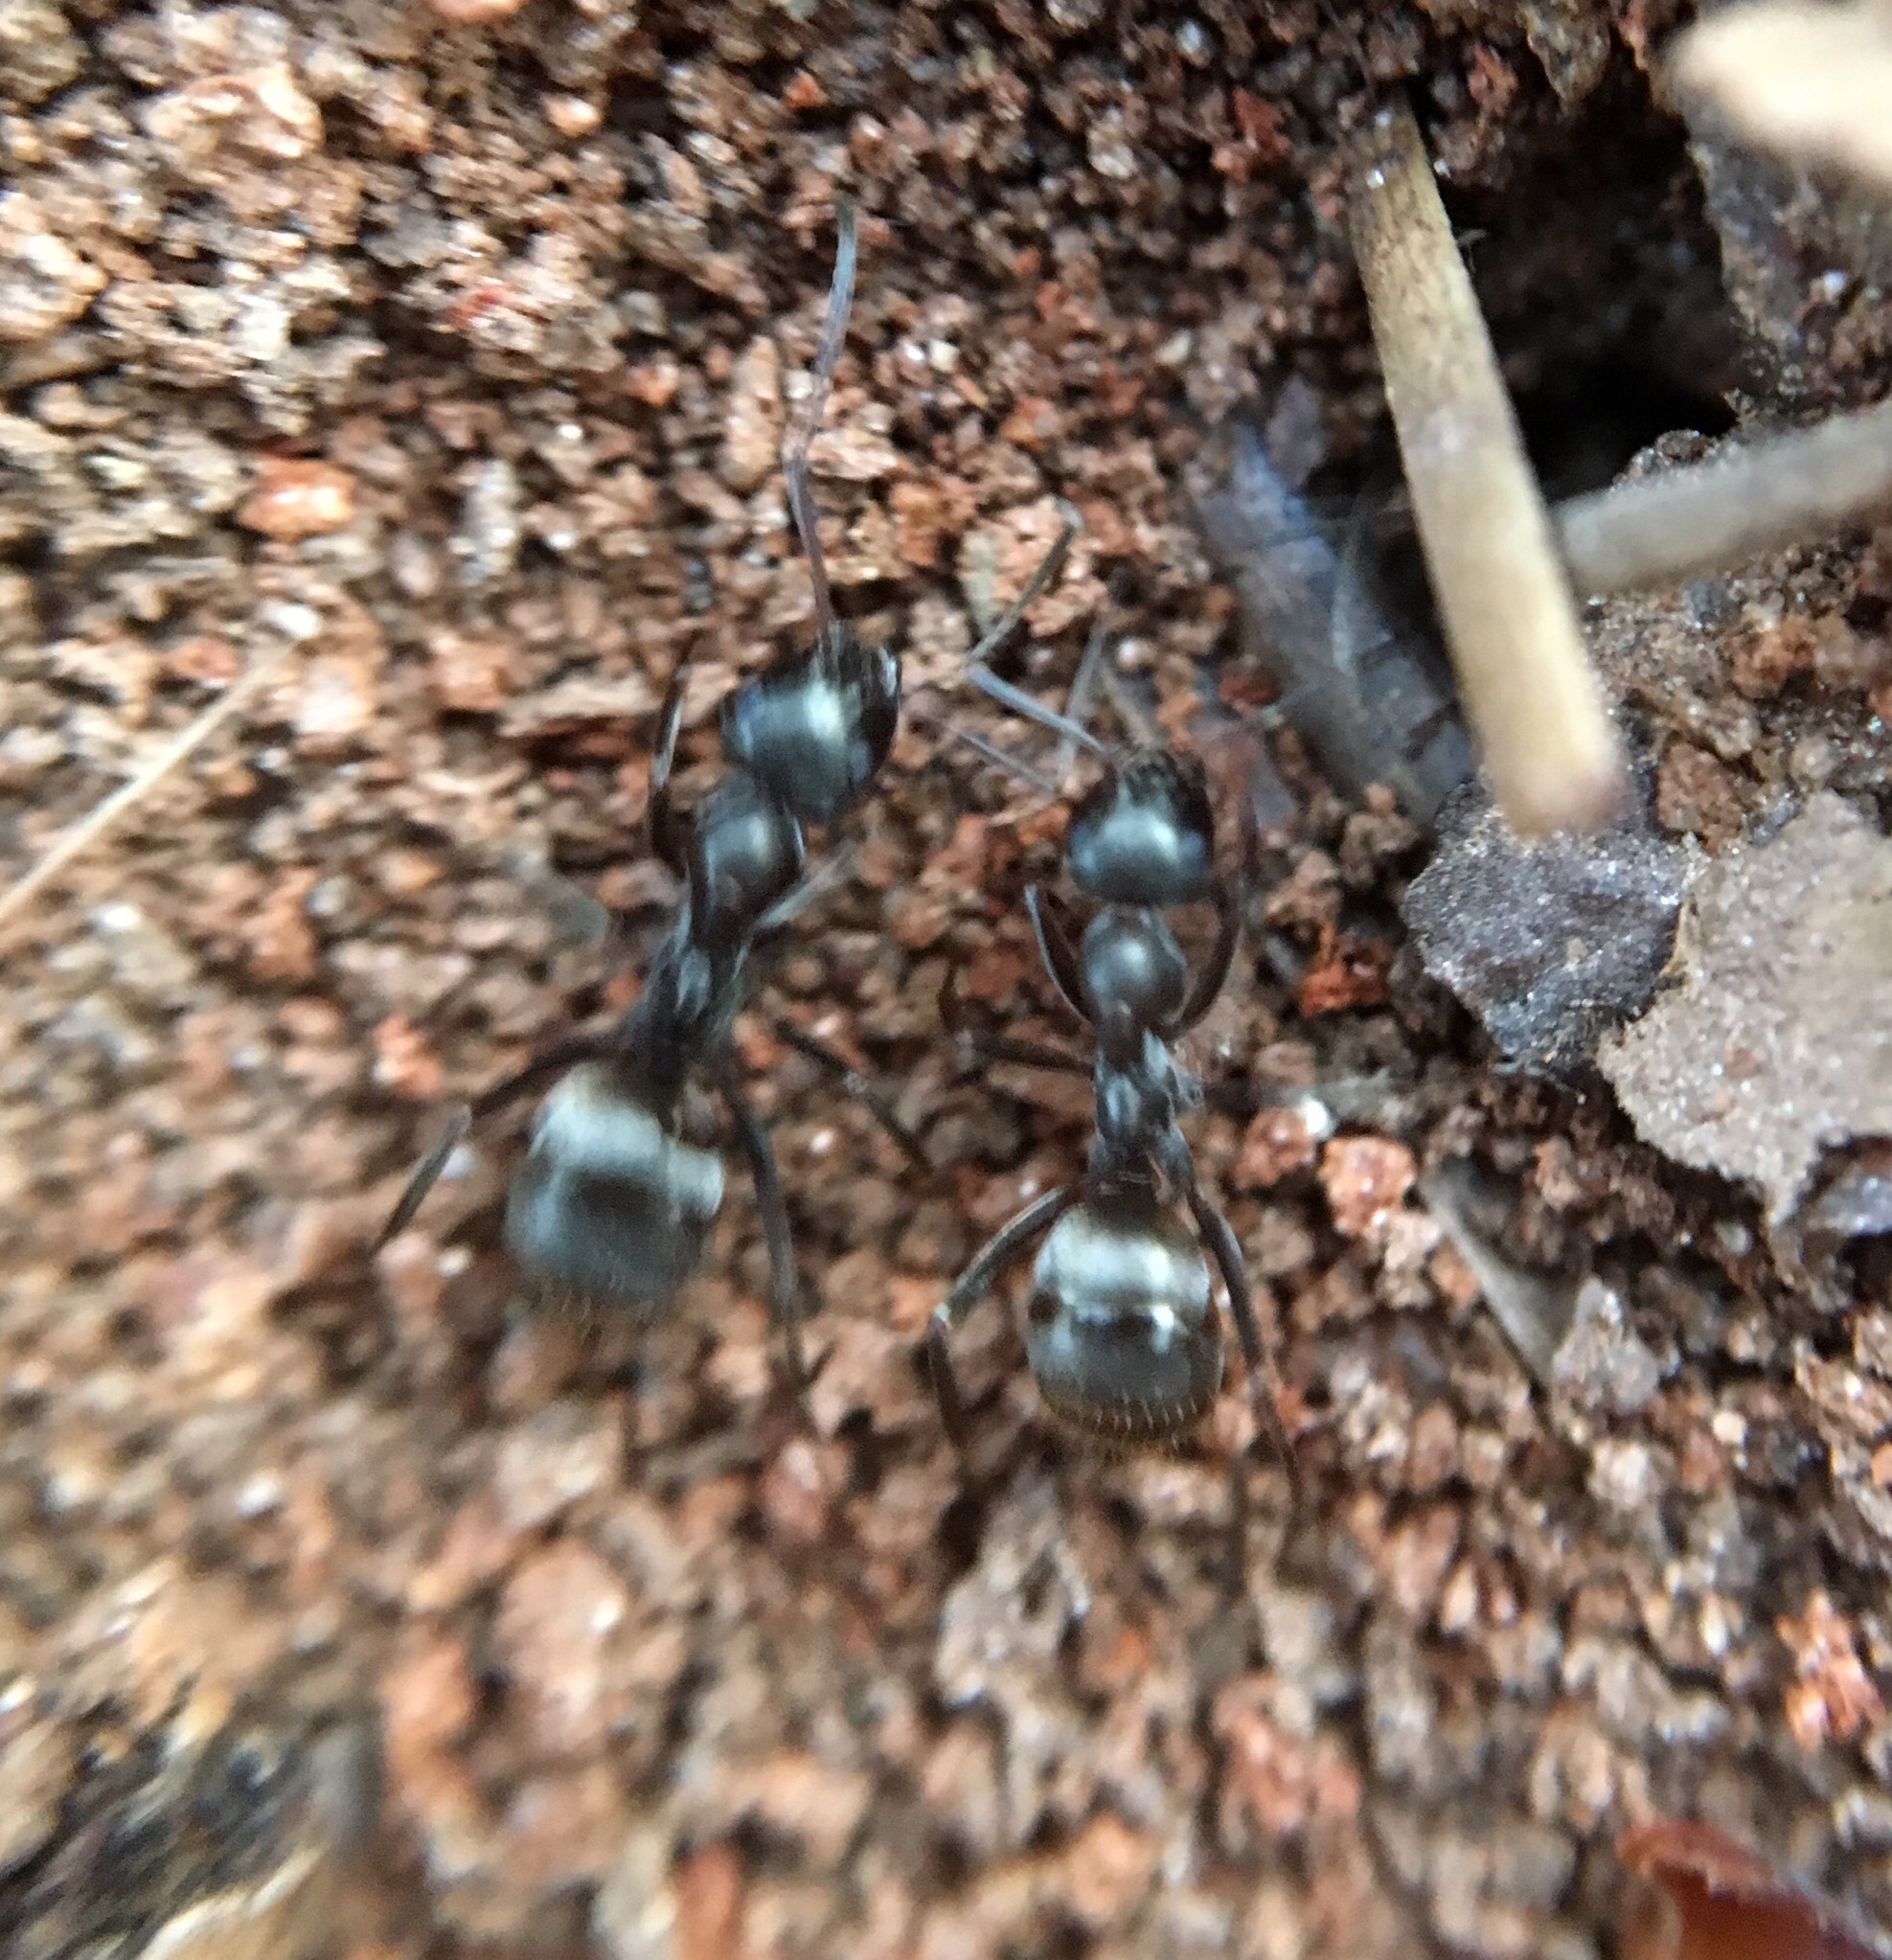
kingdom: Animalia
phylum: Arthropoda
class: Insecta
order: Hymenoptera
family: Formicidae
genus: Formica
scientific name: Formica subsericea
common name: Silky field ant
